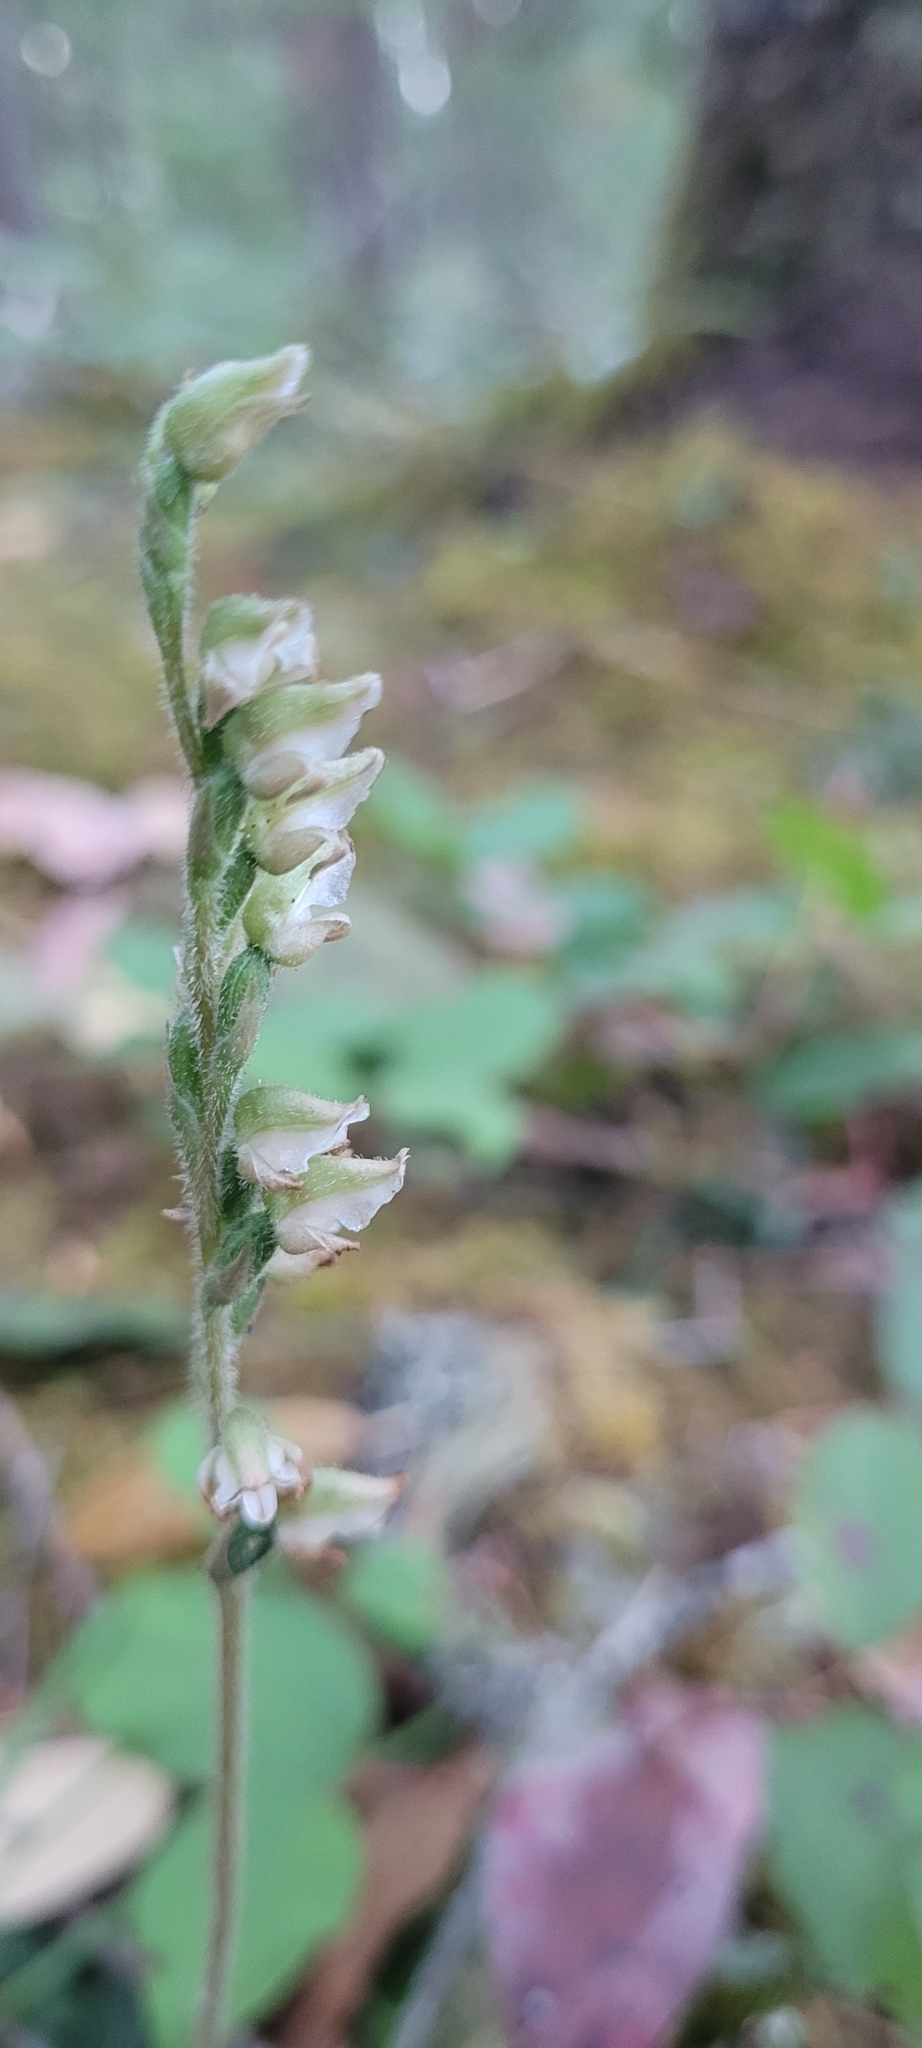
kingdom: Plantae
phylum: Tracheophyta
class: Liliopsida
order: Asparagales
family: Orchidaceae
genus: Goodyera
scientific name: Goodyera oblongifolia
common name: Giant rattlesnake-plantain
